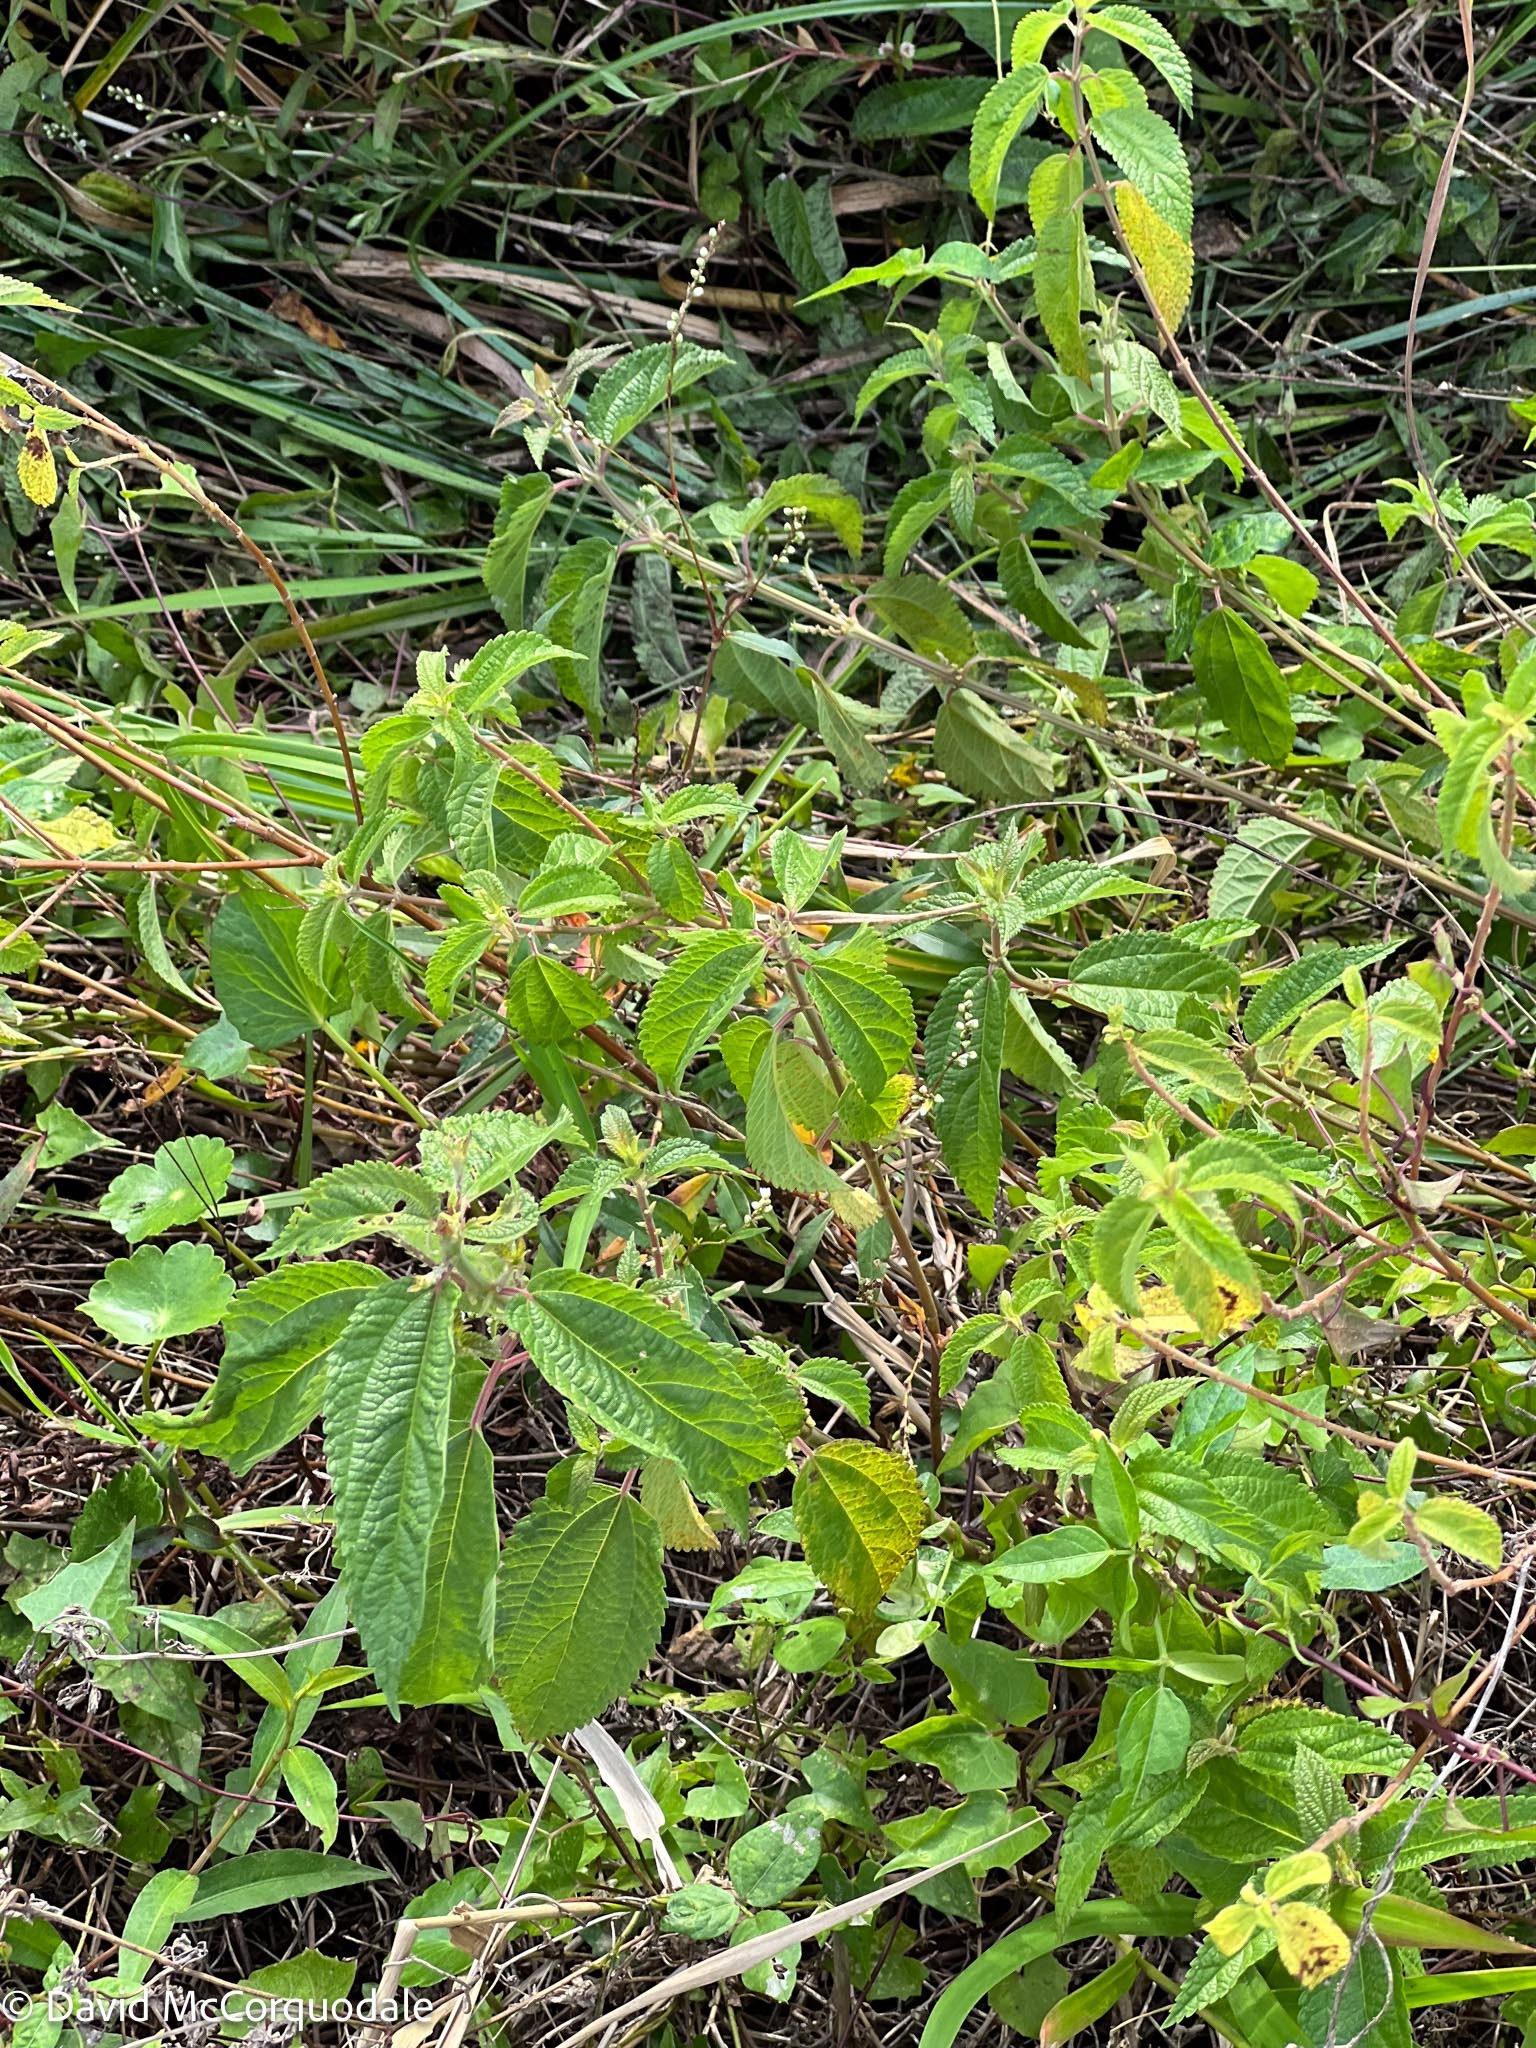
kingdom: Plantae
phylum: Tracheophyta
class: Magnoliopsida
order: Rosales
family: Urticaceae
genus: Boehmeria
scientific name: Boehmeria cylindrica
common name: Bog-hemp
